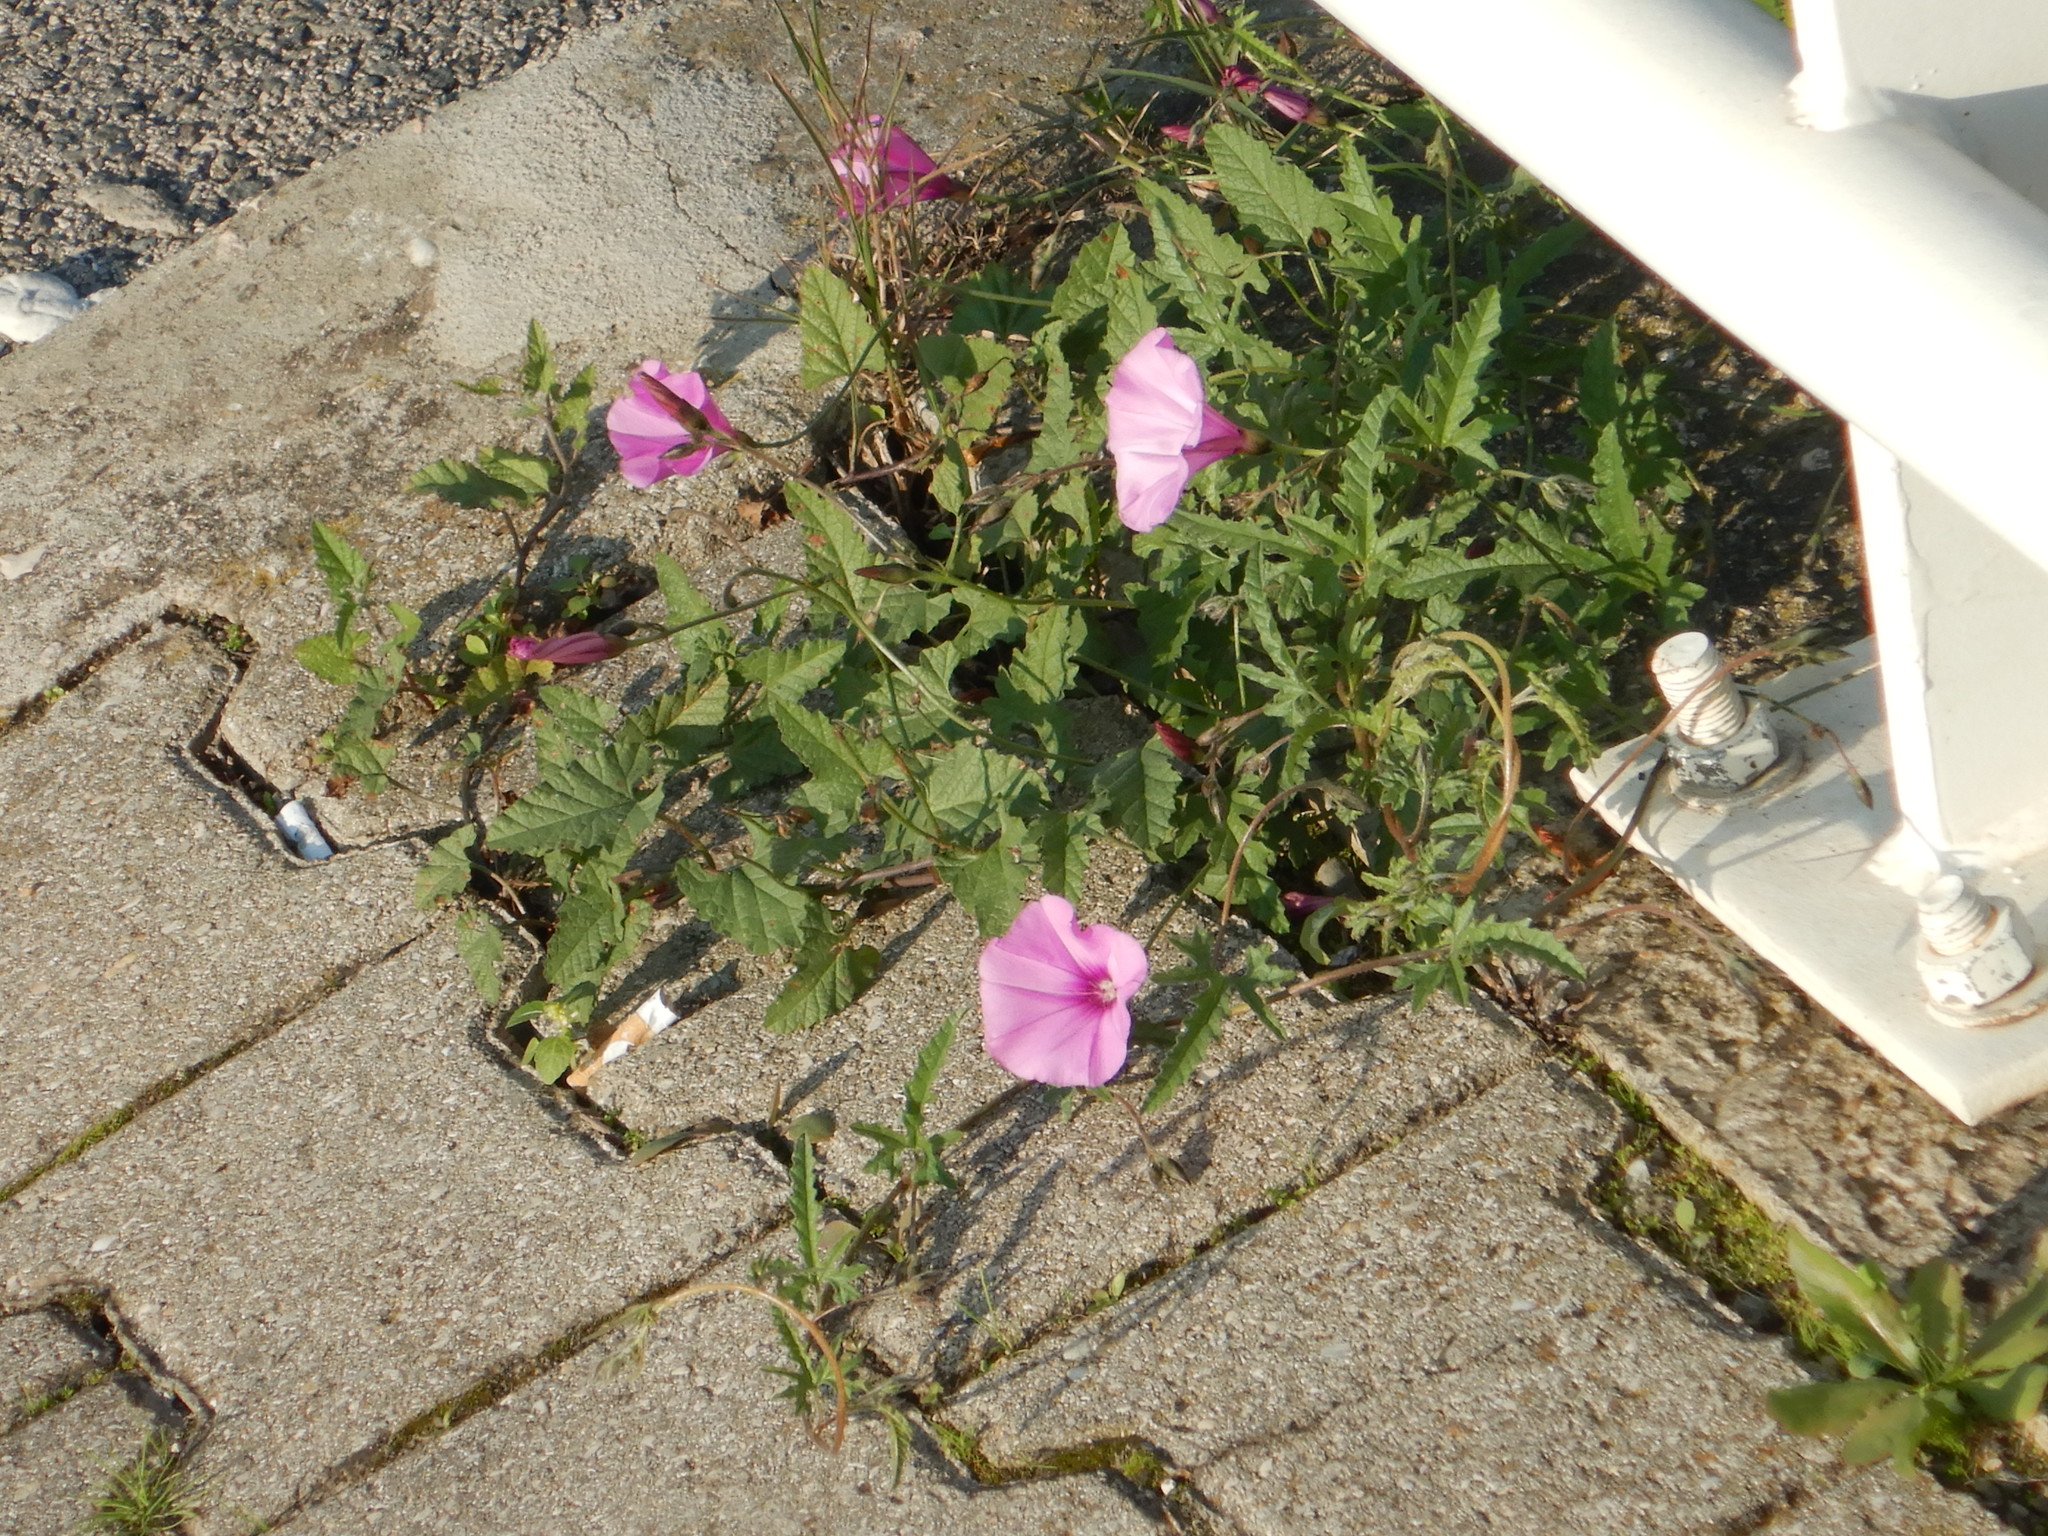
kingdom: Plantae
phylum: Tracheophyta
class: Magnoliopsida
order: Solanales
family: Convolvulaceae
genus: Convolvulus
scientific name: Convolvulus althaeoides
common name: Mallow bindweed
